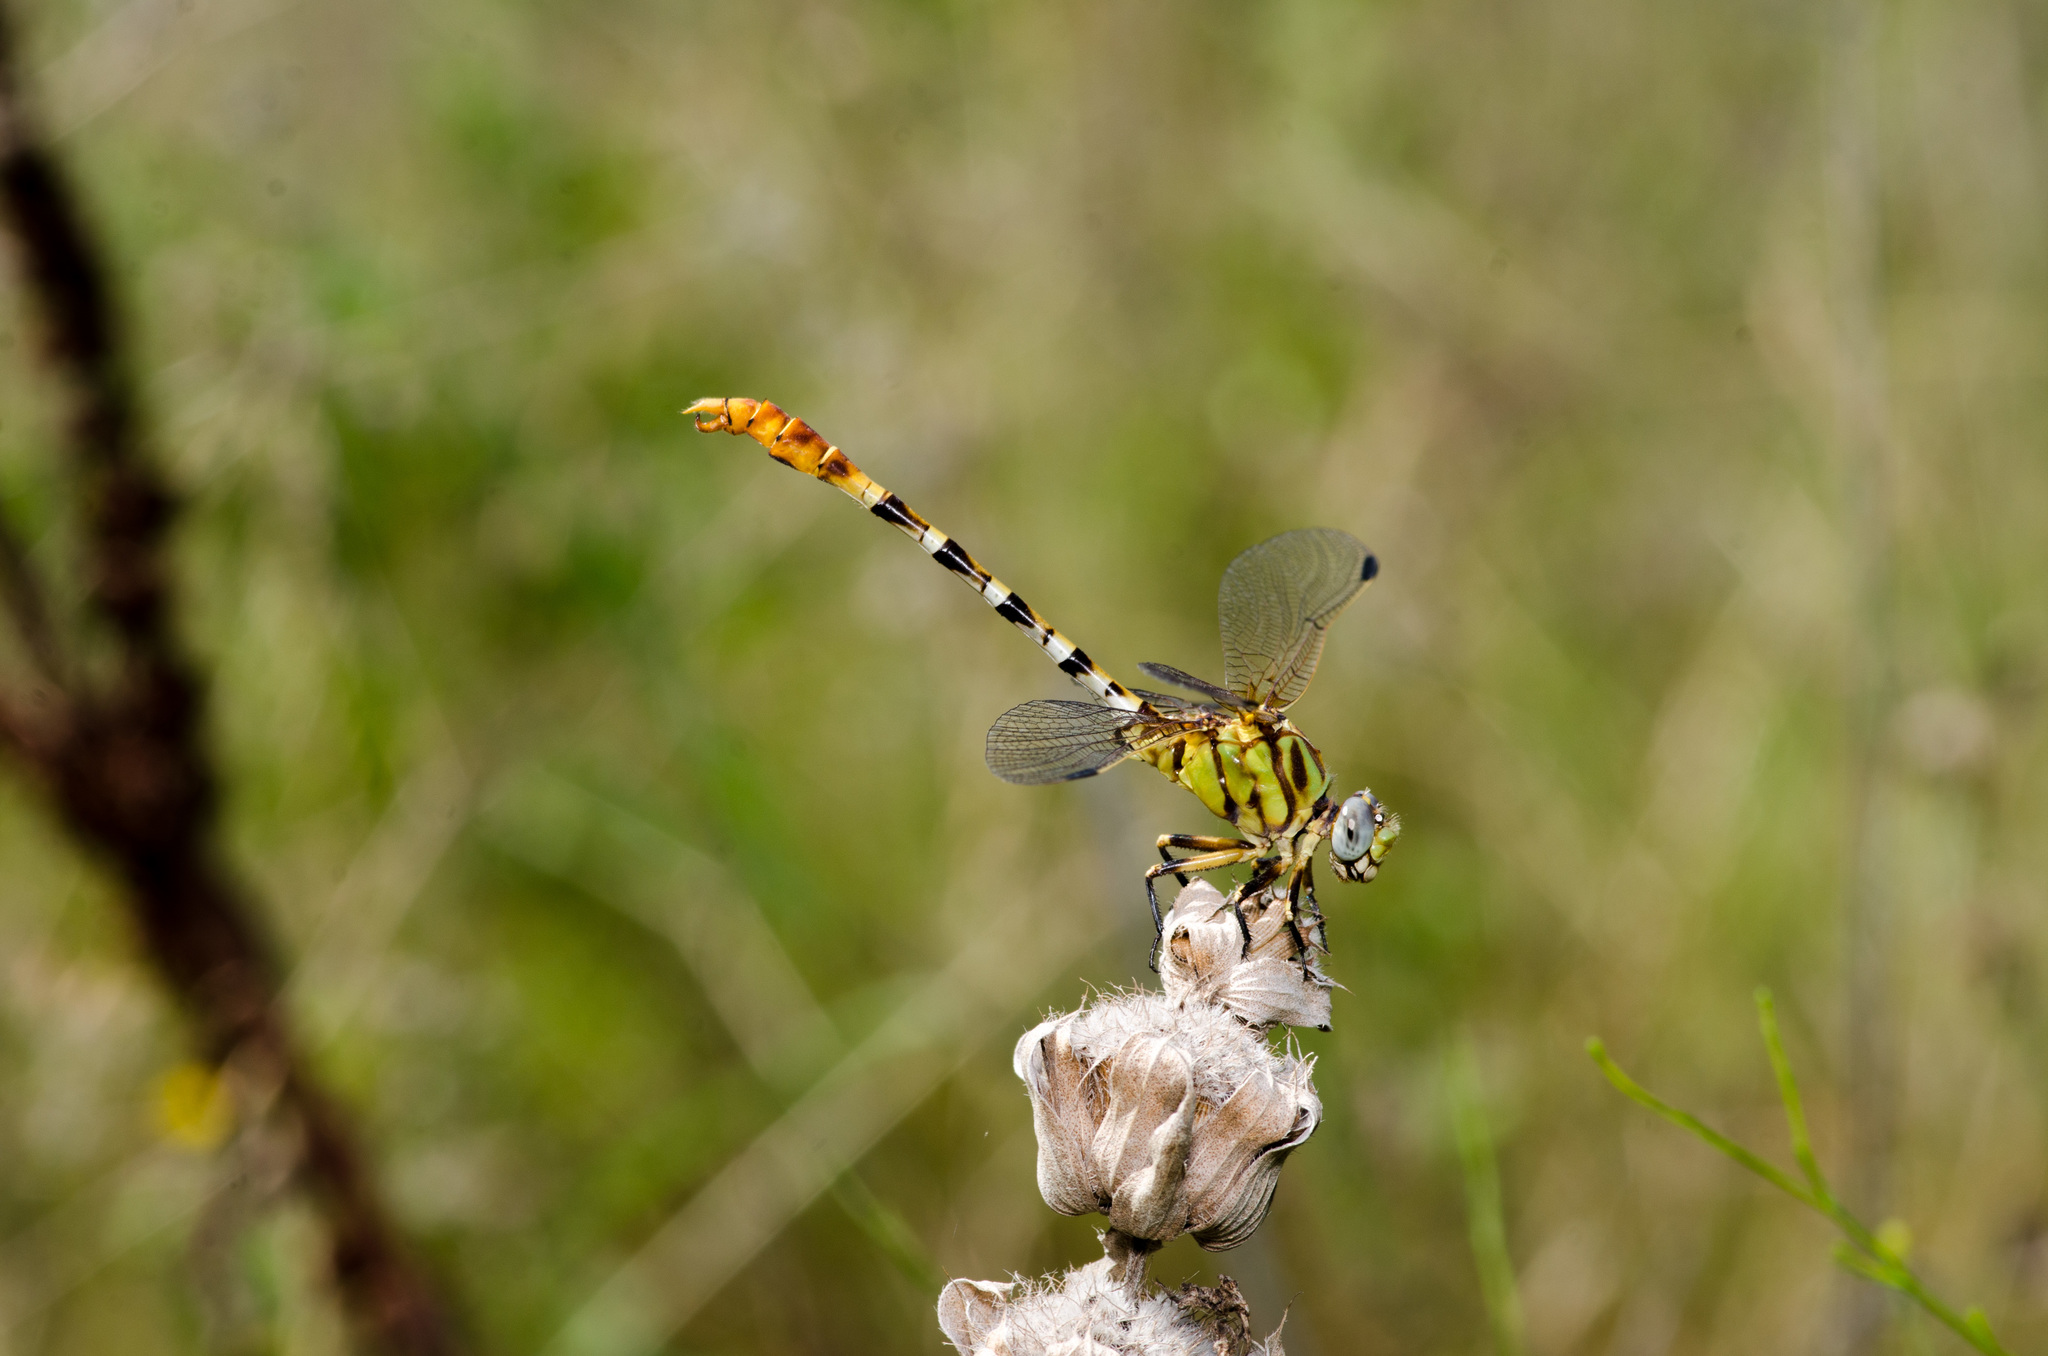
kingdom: Animalia
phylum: Arthropoda
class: Insecta
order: Odonata
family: Gomphidae
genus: Erpetogomphus
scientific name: Erpetogomphus designatus
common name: Eastern ringtail
